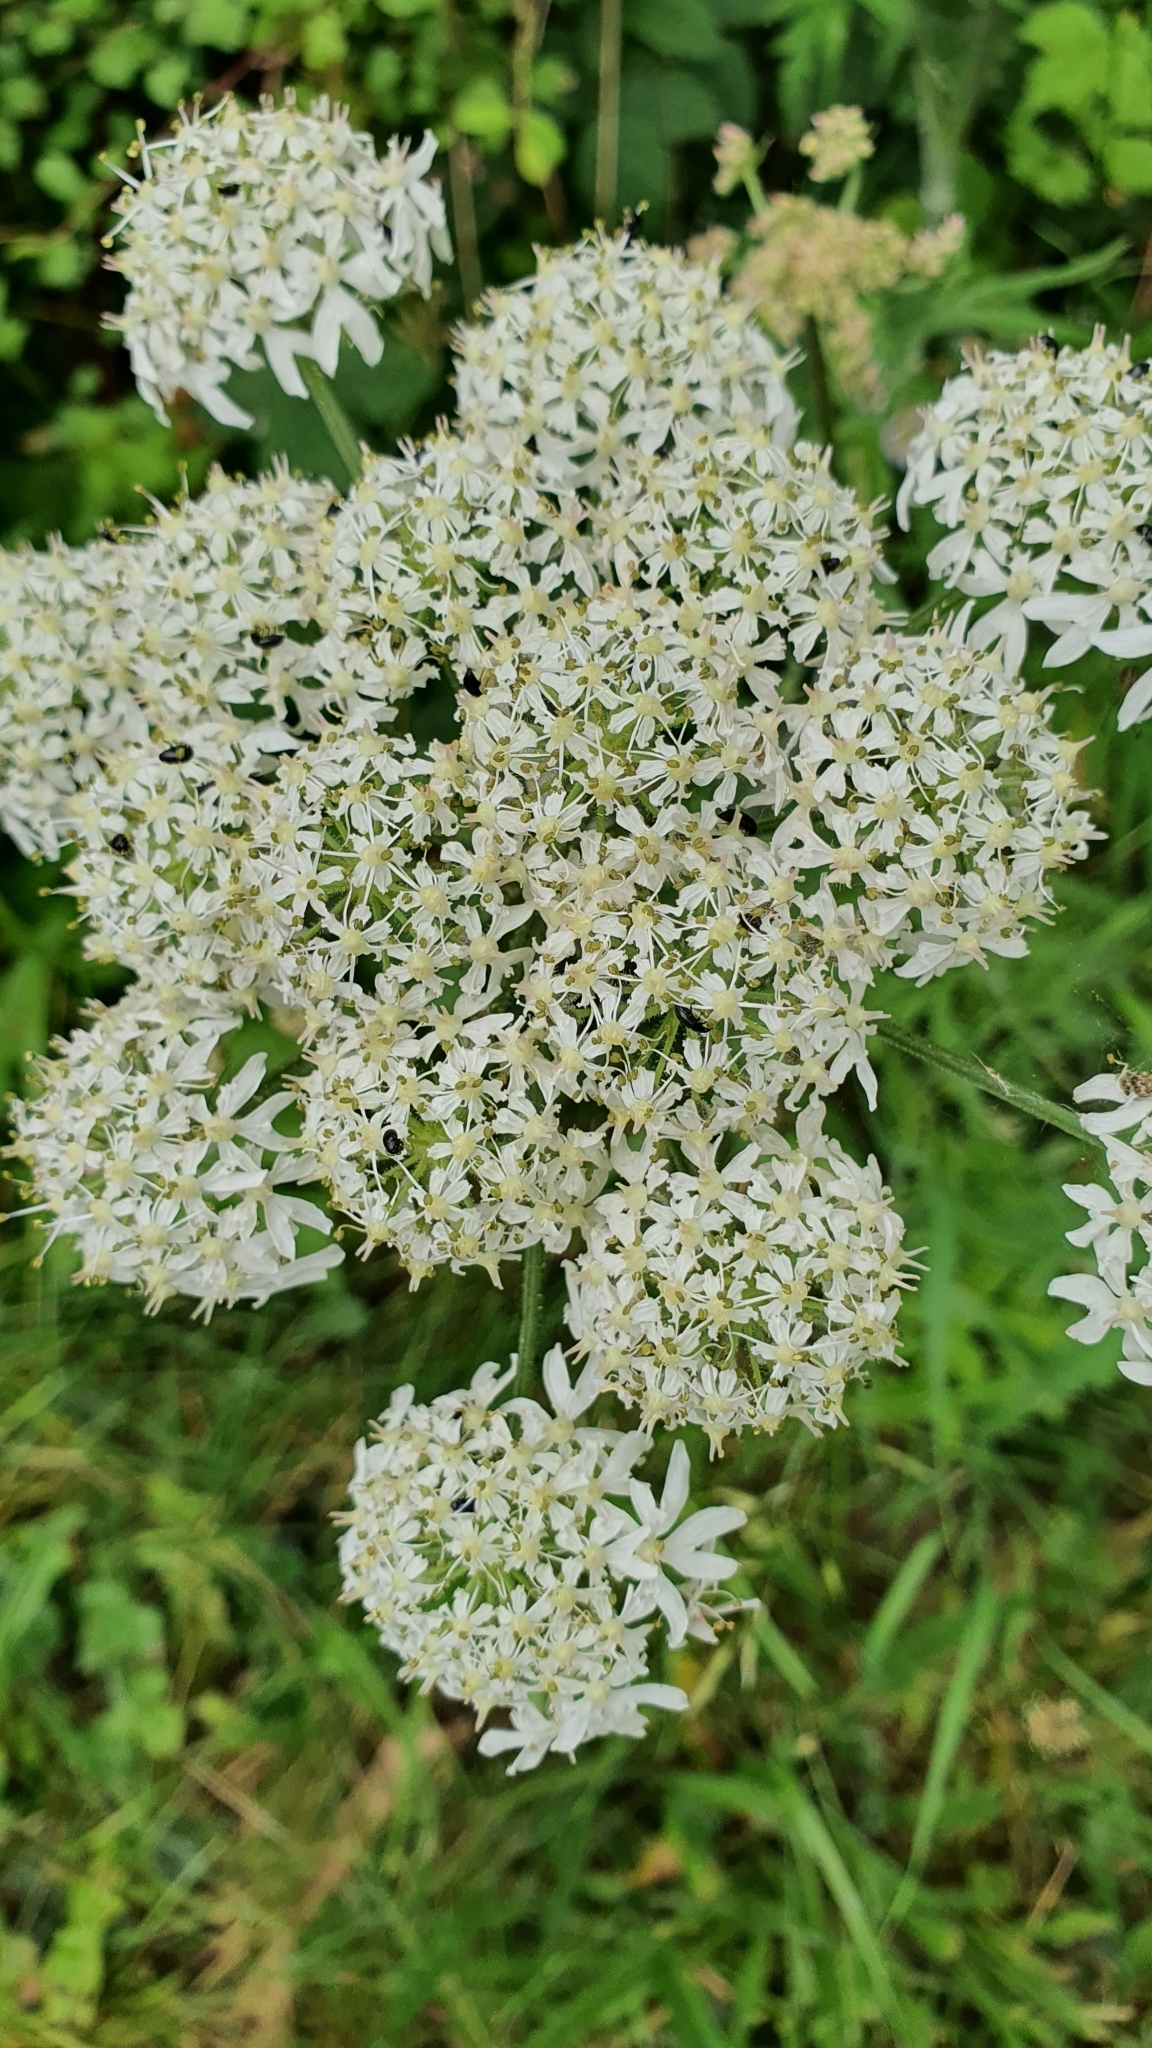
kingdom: Plantae
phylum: Tracheophyta
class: Magnoliopsida
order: Apiales
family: Apiaceae
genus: Heracleum
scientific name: Heracleum sphondylium
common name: Hogweed
